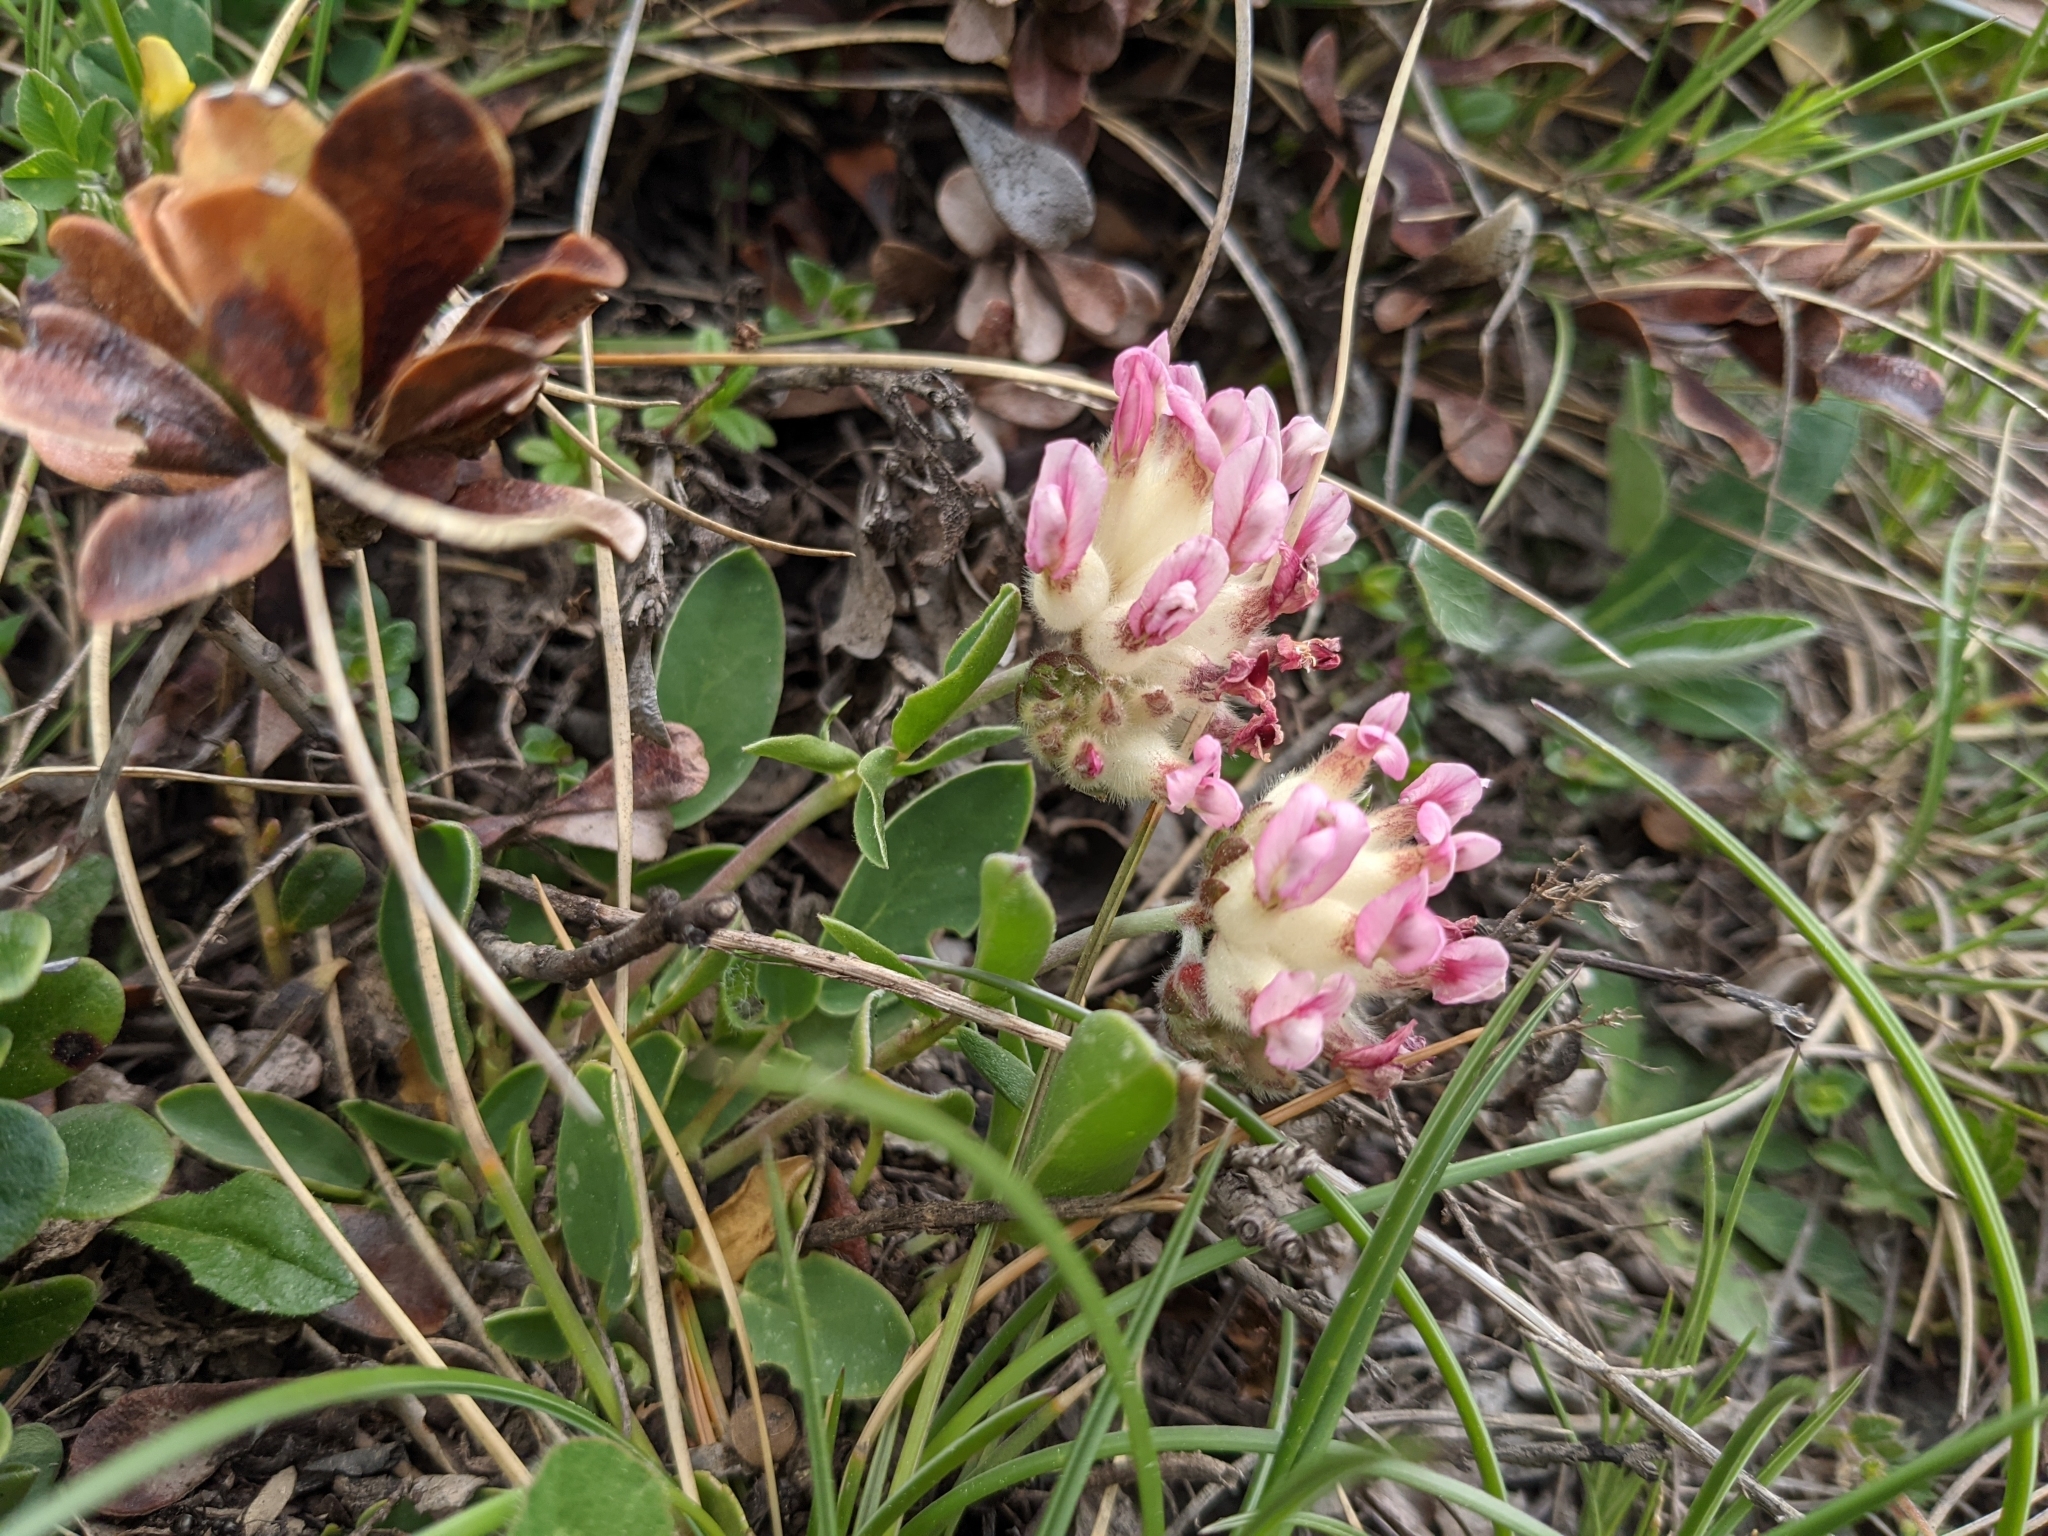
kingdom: Plantae
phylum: Tracheophyta
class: Magnoliopsida
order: Fabales
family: Fabaceae
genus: Anthyllis
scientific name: Anthyllis vulneraria
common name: Kidney vetch
